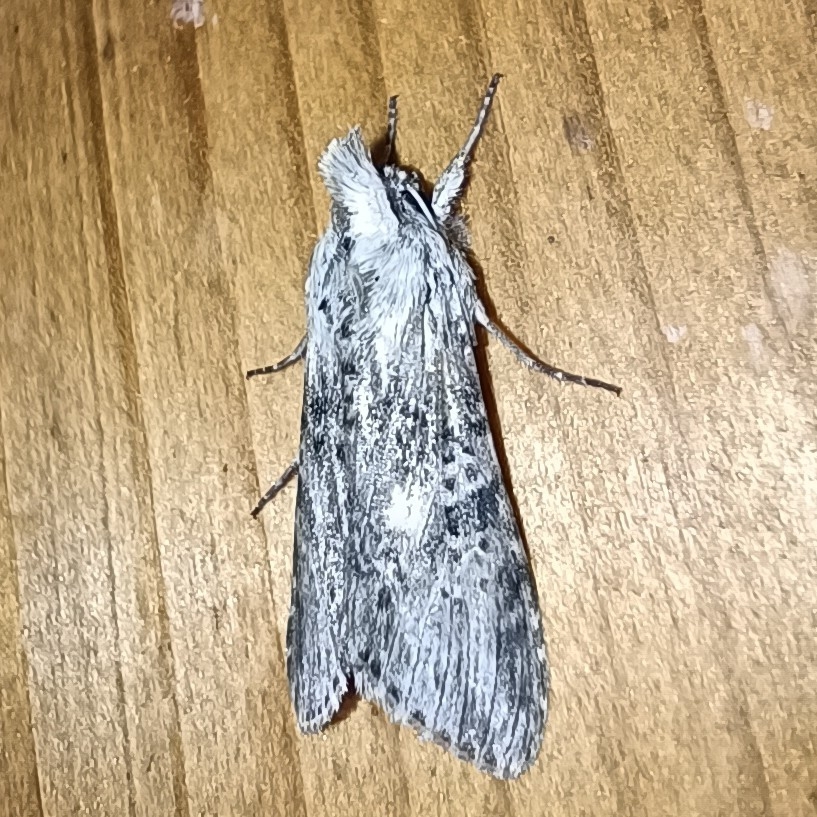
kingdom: Animalia
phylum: Arthropoda
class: Insecta
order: Lepidoptera
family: Noctuidae
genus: Cucullia
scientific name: Cucullia absinthii
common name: Wormwood
